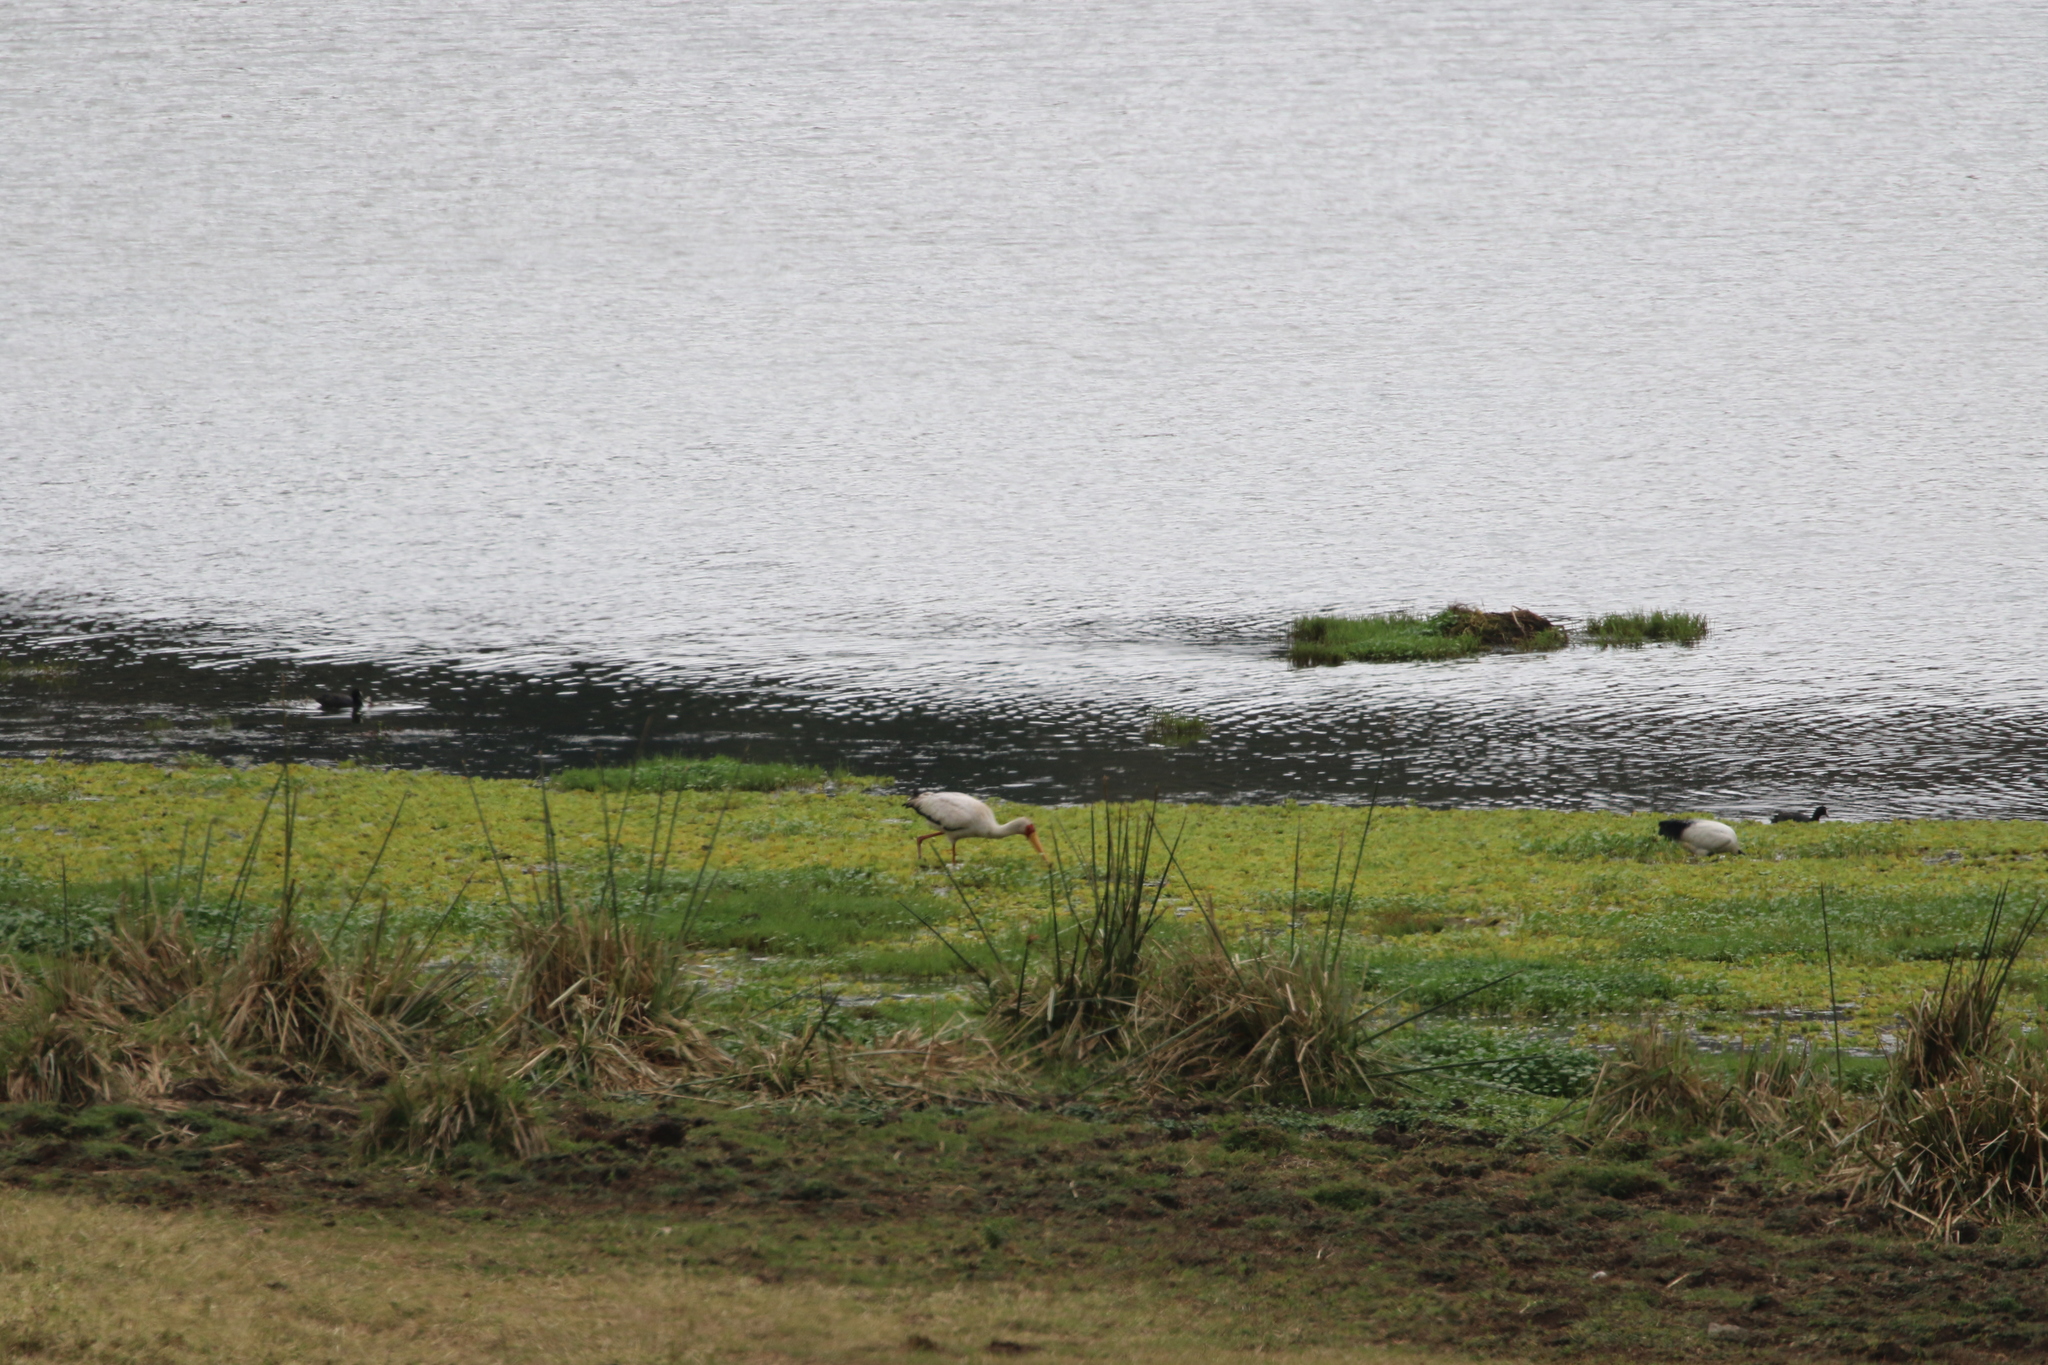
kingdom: Animalia
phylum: Chordata
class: Aves
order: Ciconiiformes
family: Ciconiidae
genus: Mycteria
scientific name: Mycteria ibis
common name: Yellow-billed stork
